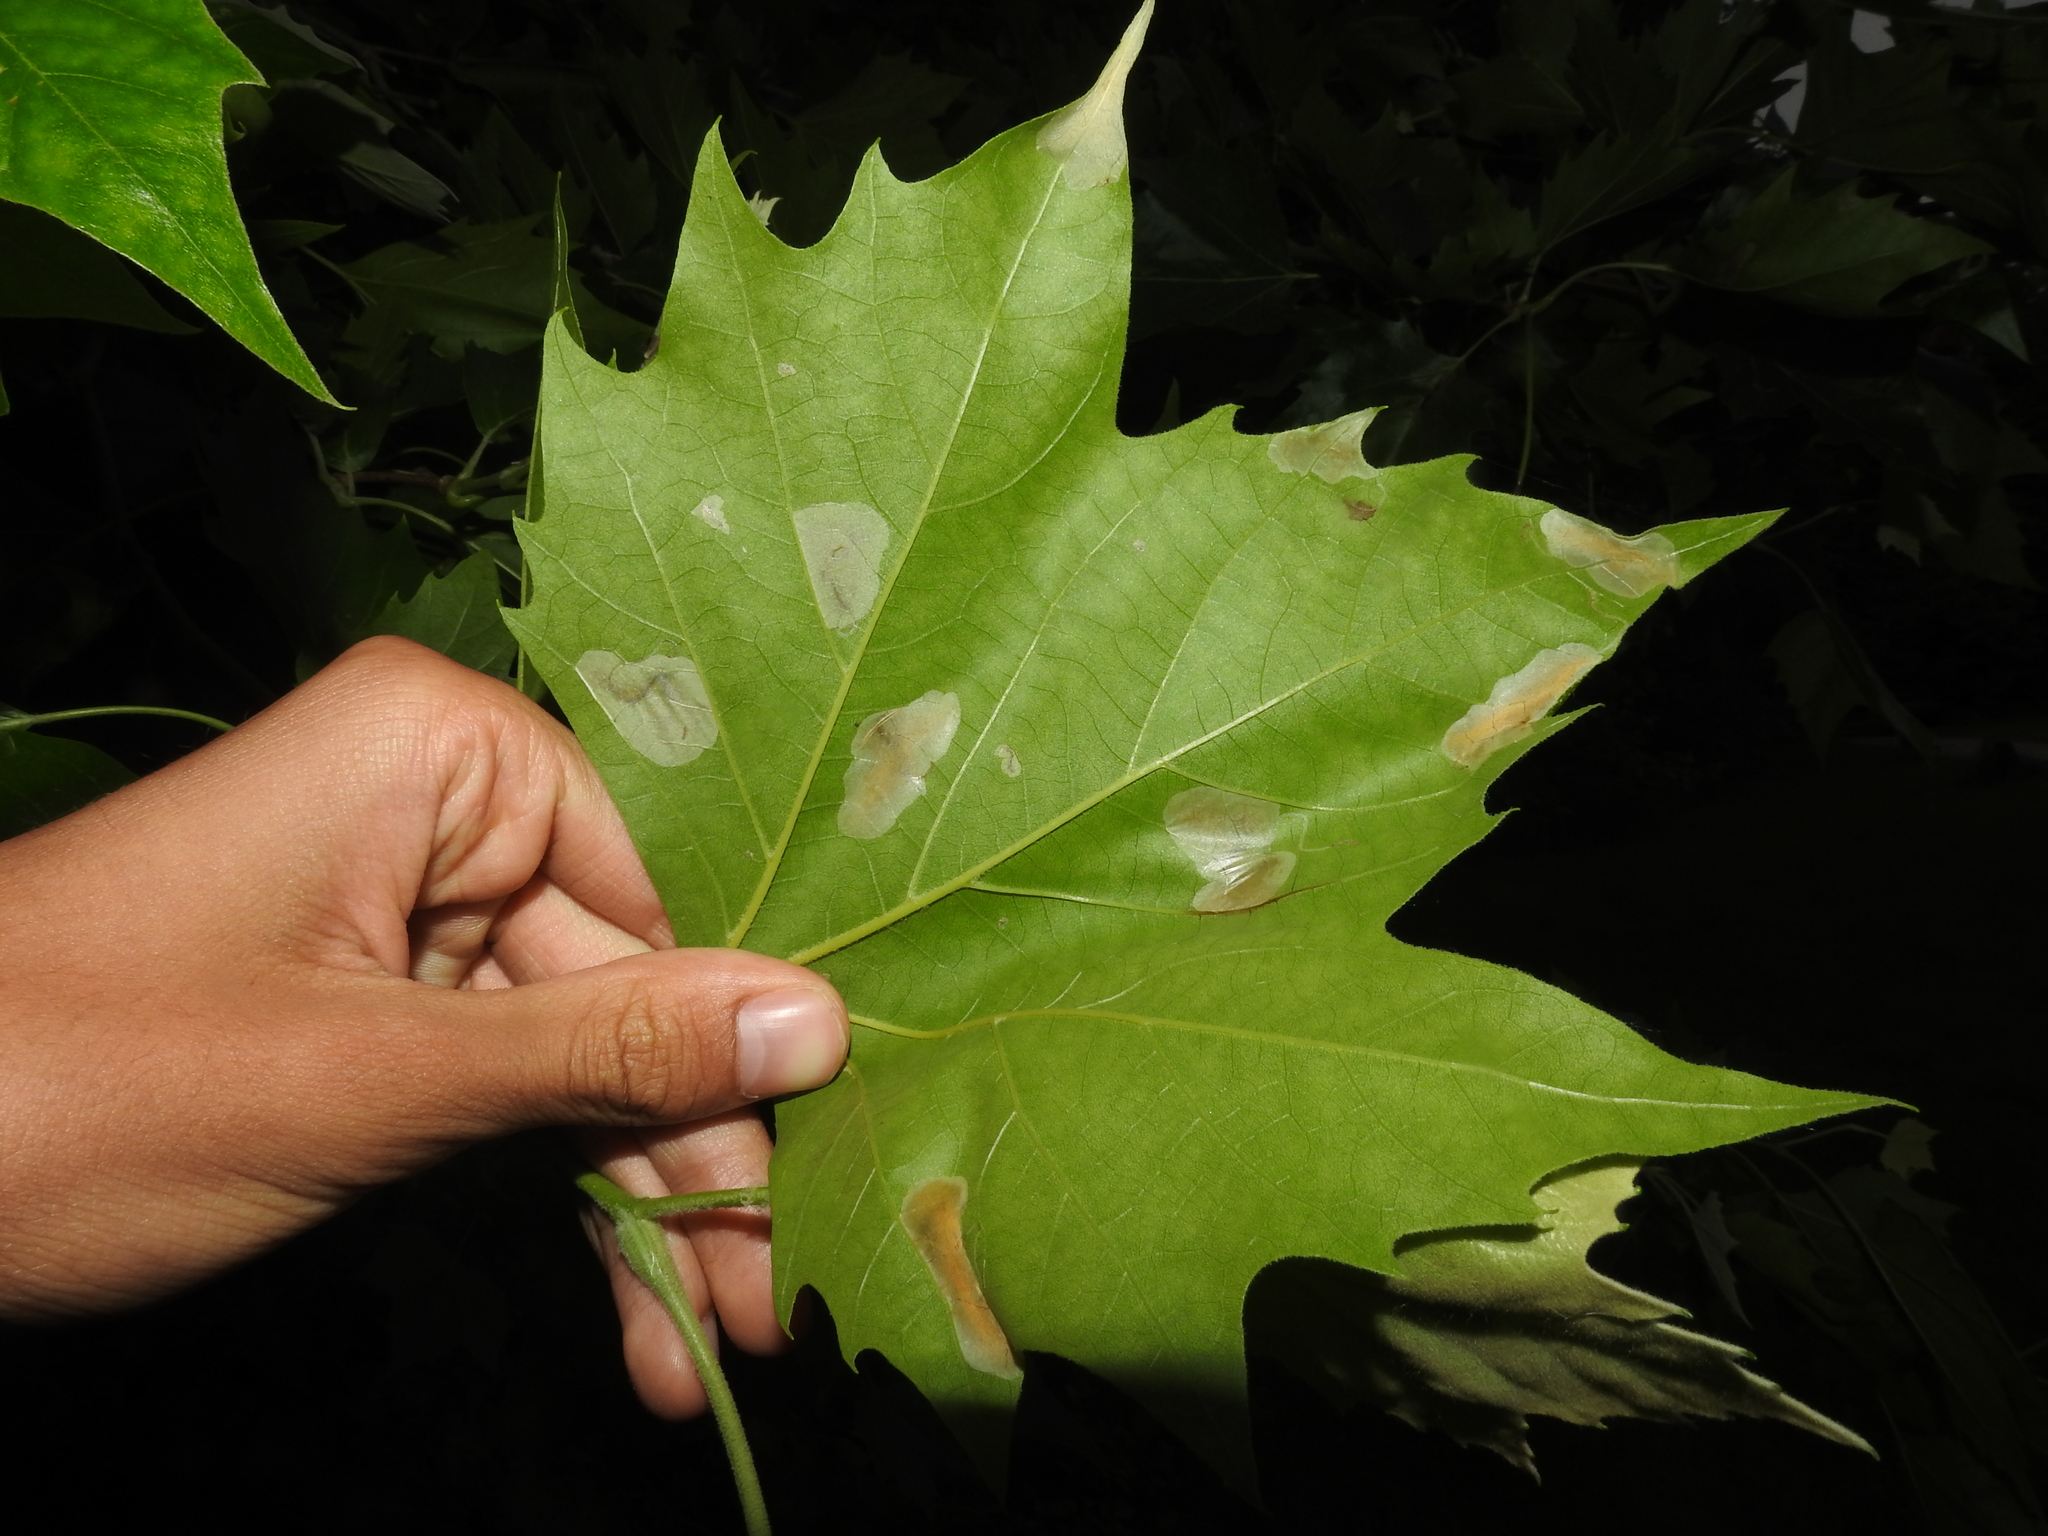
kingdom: Animalia
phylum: Arthropoda
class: Insecta
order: Lepidoptera
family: Gracillariidae
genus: Phyllonorycter
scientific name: Phyllonorycter platani
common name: London midget
